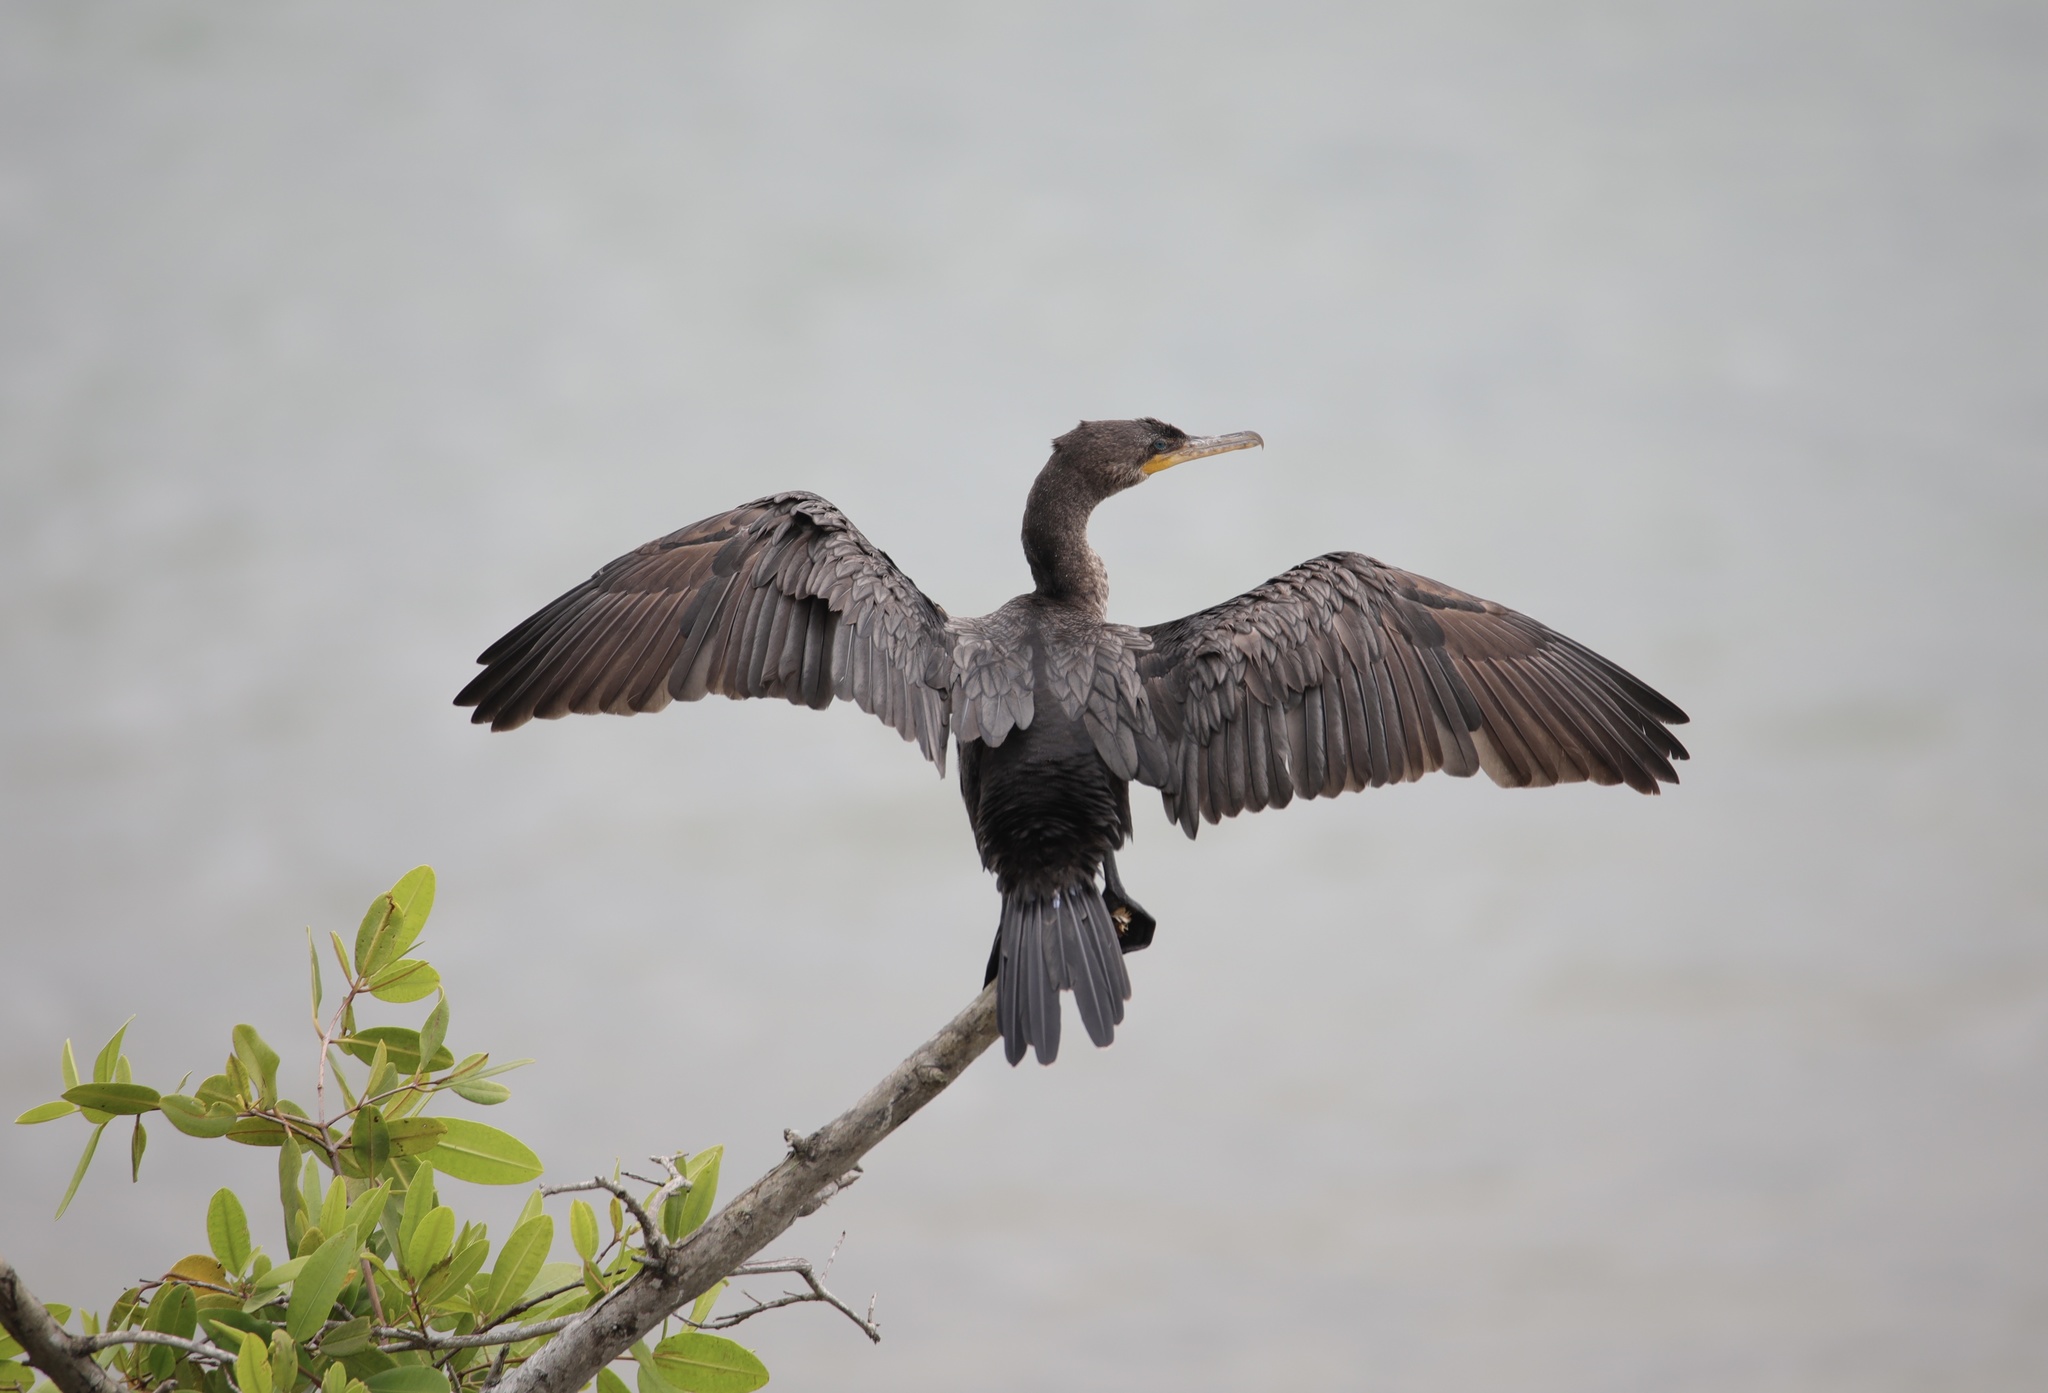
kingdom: Animalia
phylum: Chordata
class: Aves
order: Suliformes
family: Phalacrocoracidae
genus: Phalacrocorax
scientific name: Phalacrocorax brasilianus
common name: Neotropic cormorant
